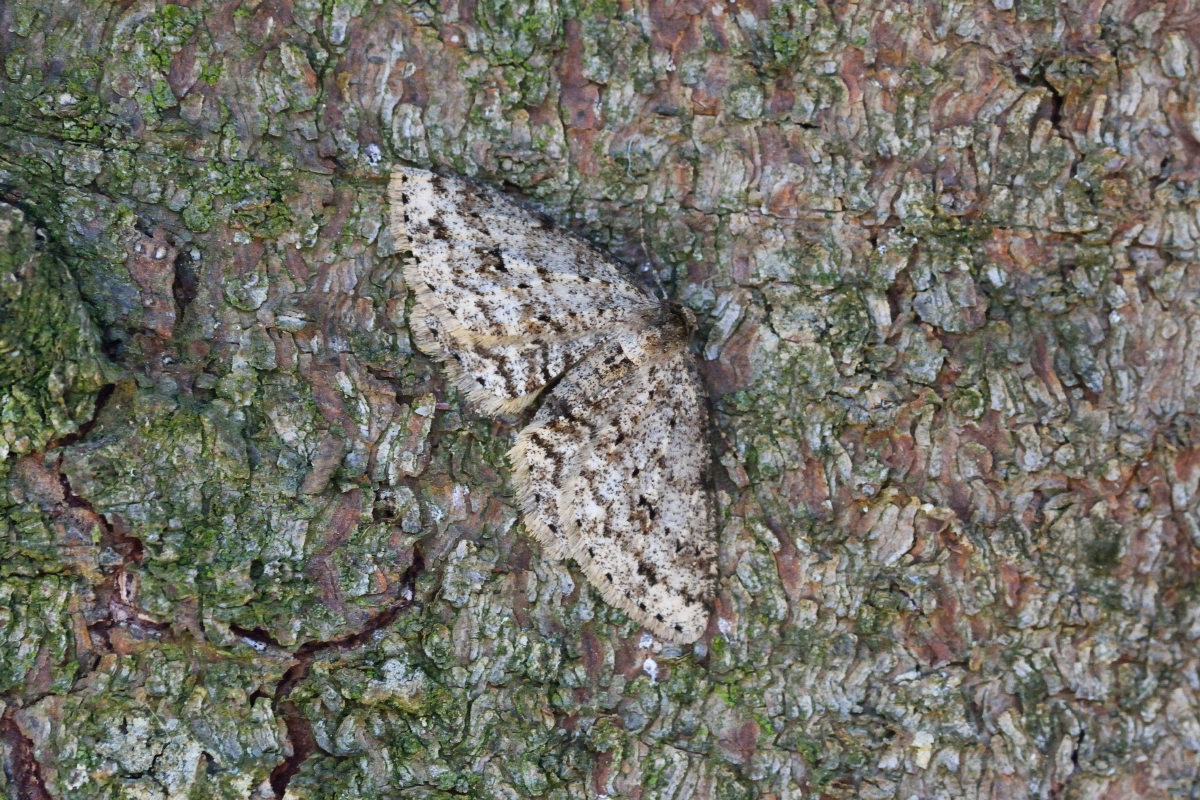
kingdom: Animalia
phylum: Arthropoda
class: Insecta
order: Lepidoptera
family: Geometridae
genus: Ectropis
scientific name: Ectropis crepuscularia
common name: Engrailed
